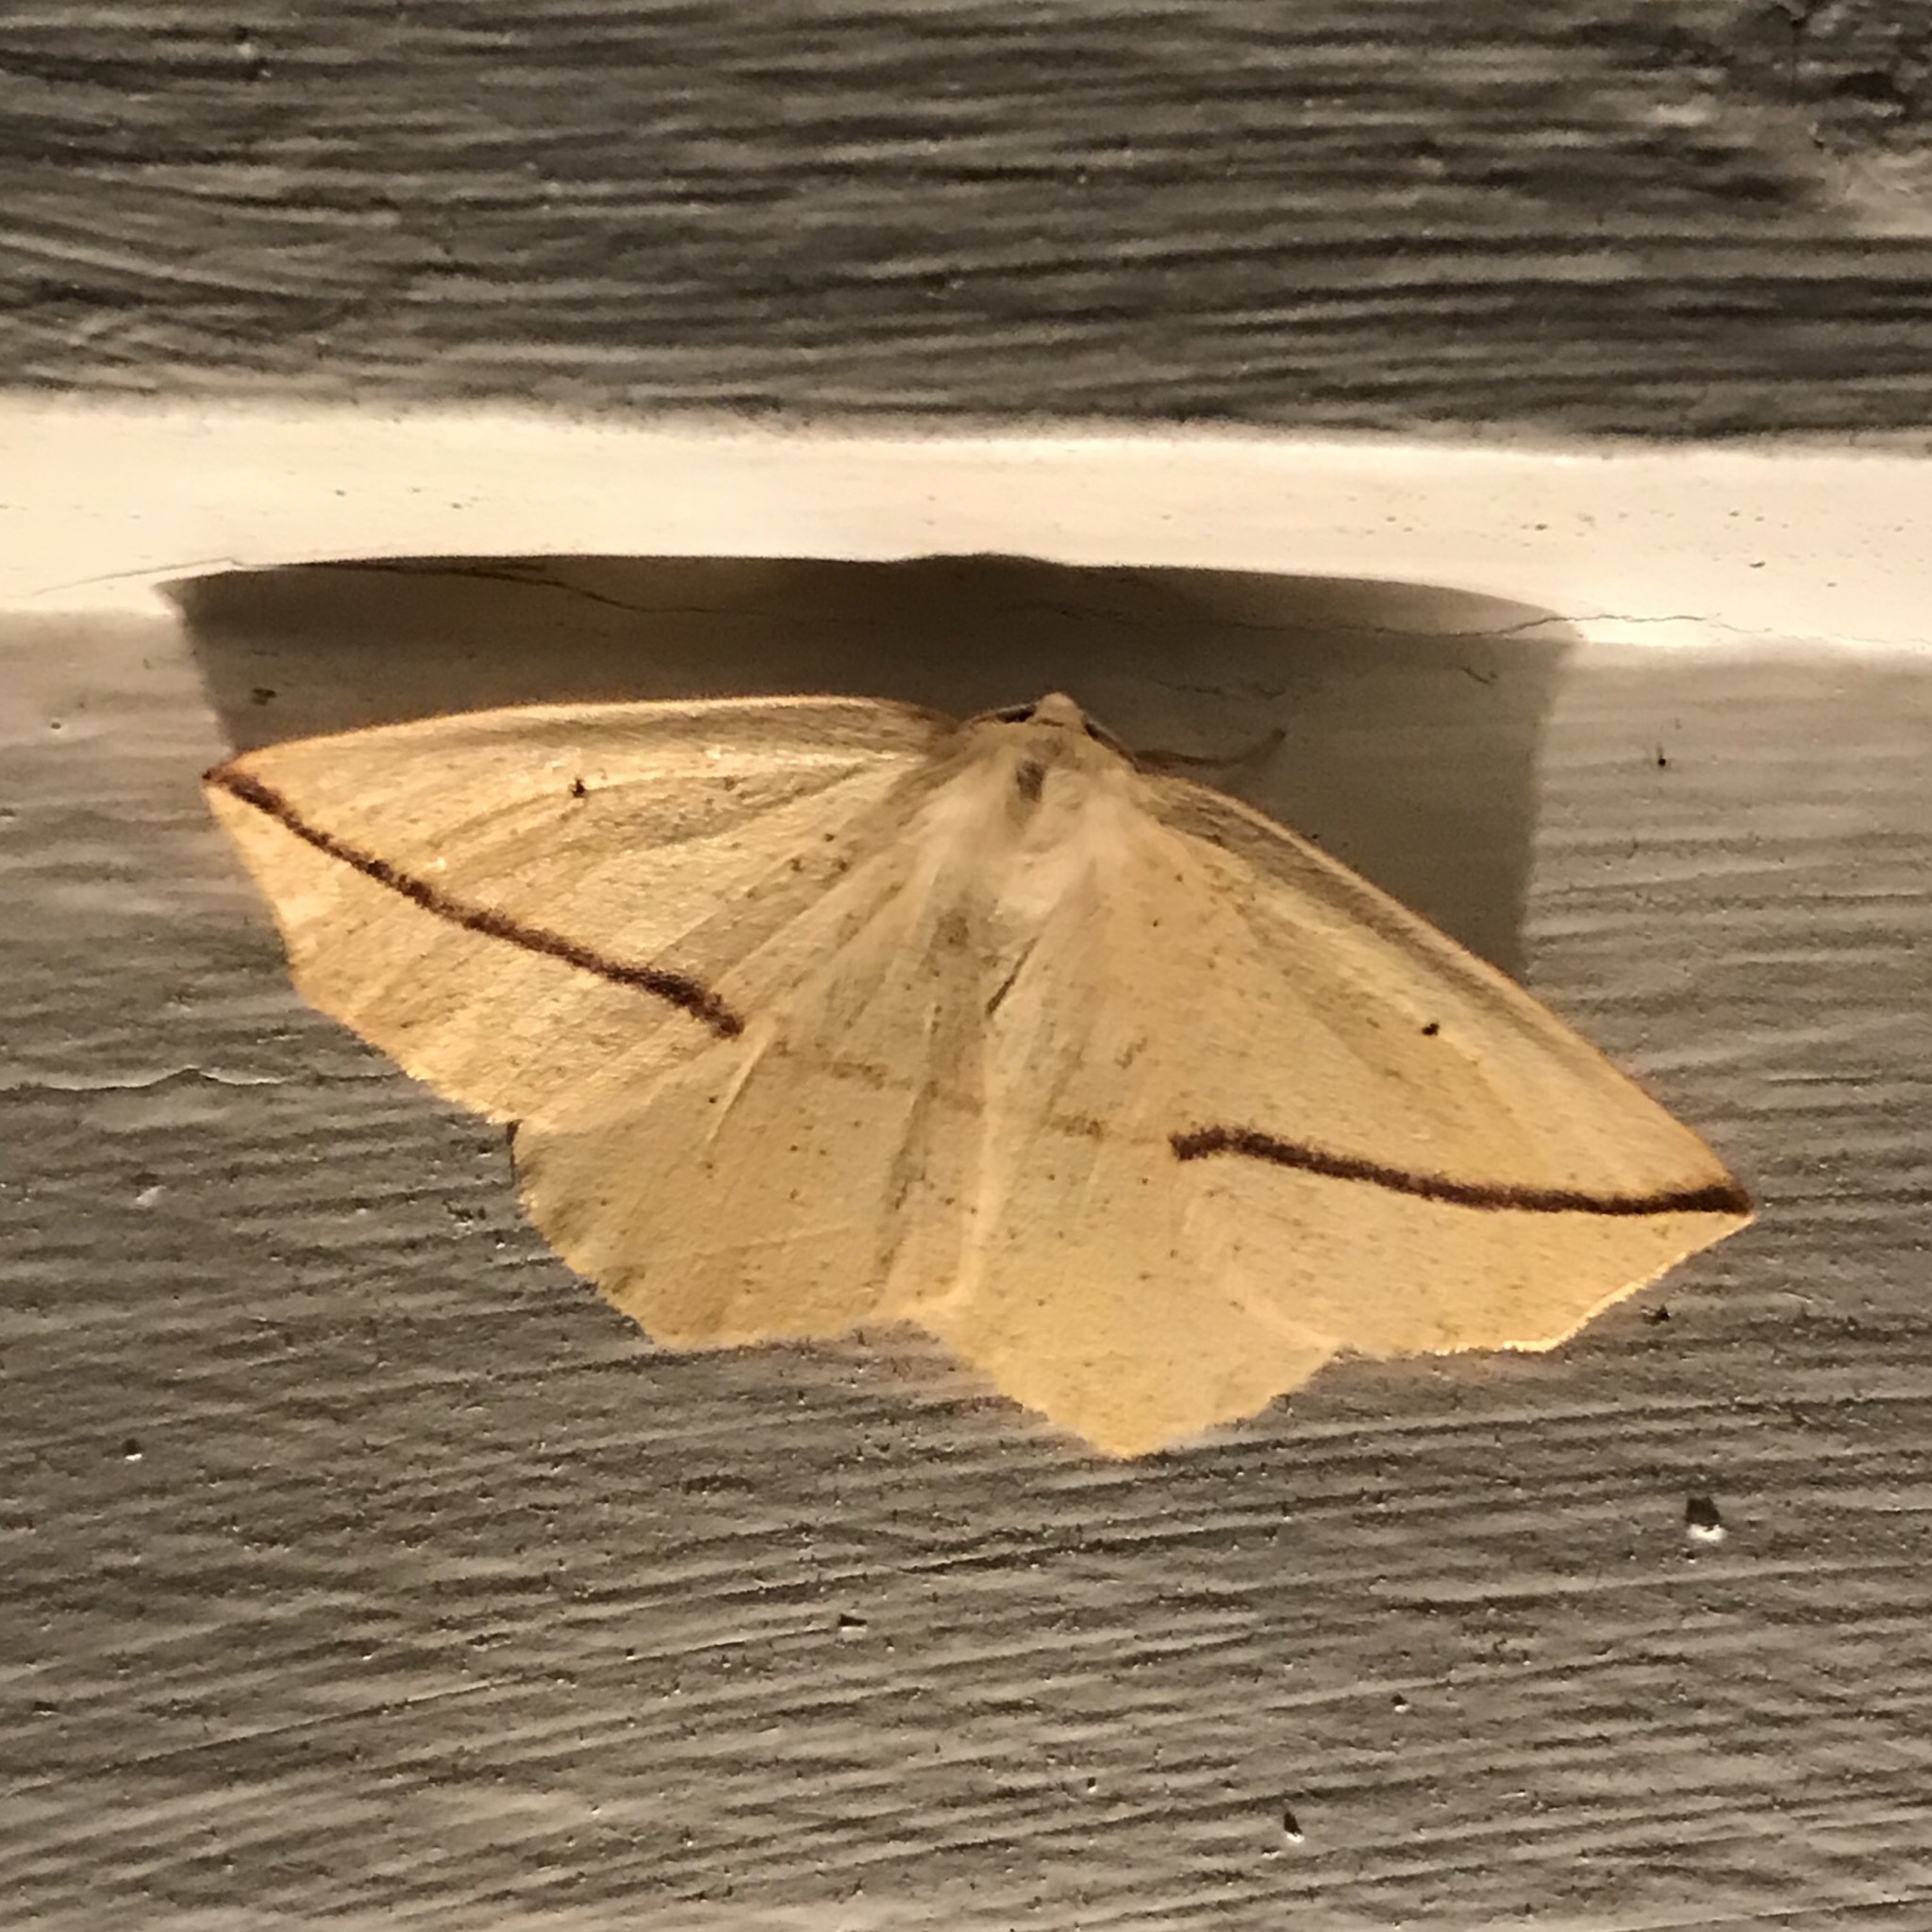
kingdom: Animalia
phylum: Arthropoda
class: Insecta
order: Lepidoptera
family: Geometridae
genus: Tetracis
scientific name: Tetracis crocallata
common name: Yellow slant-line
